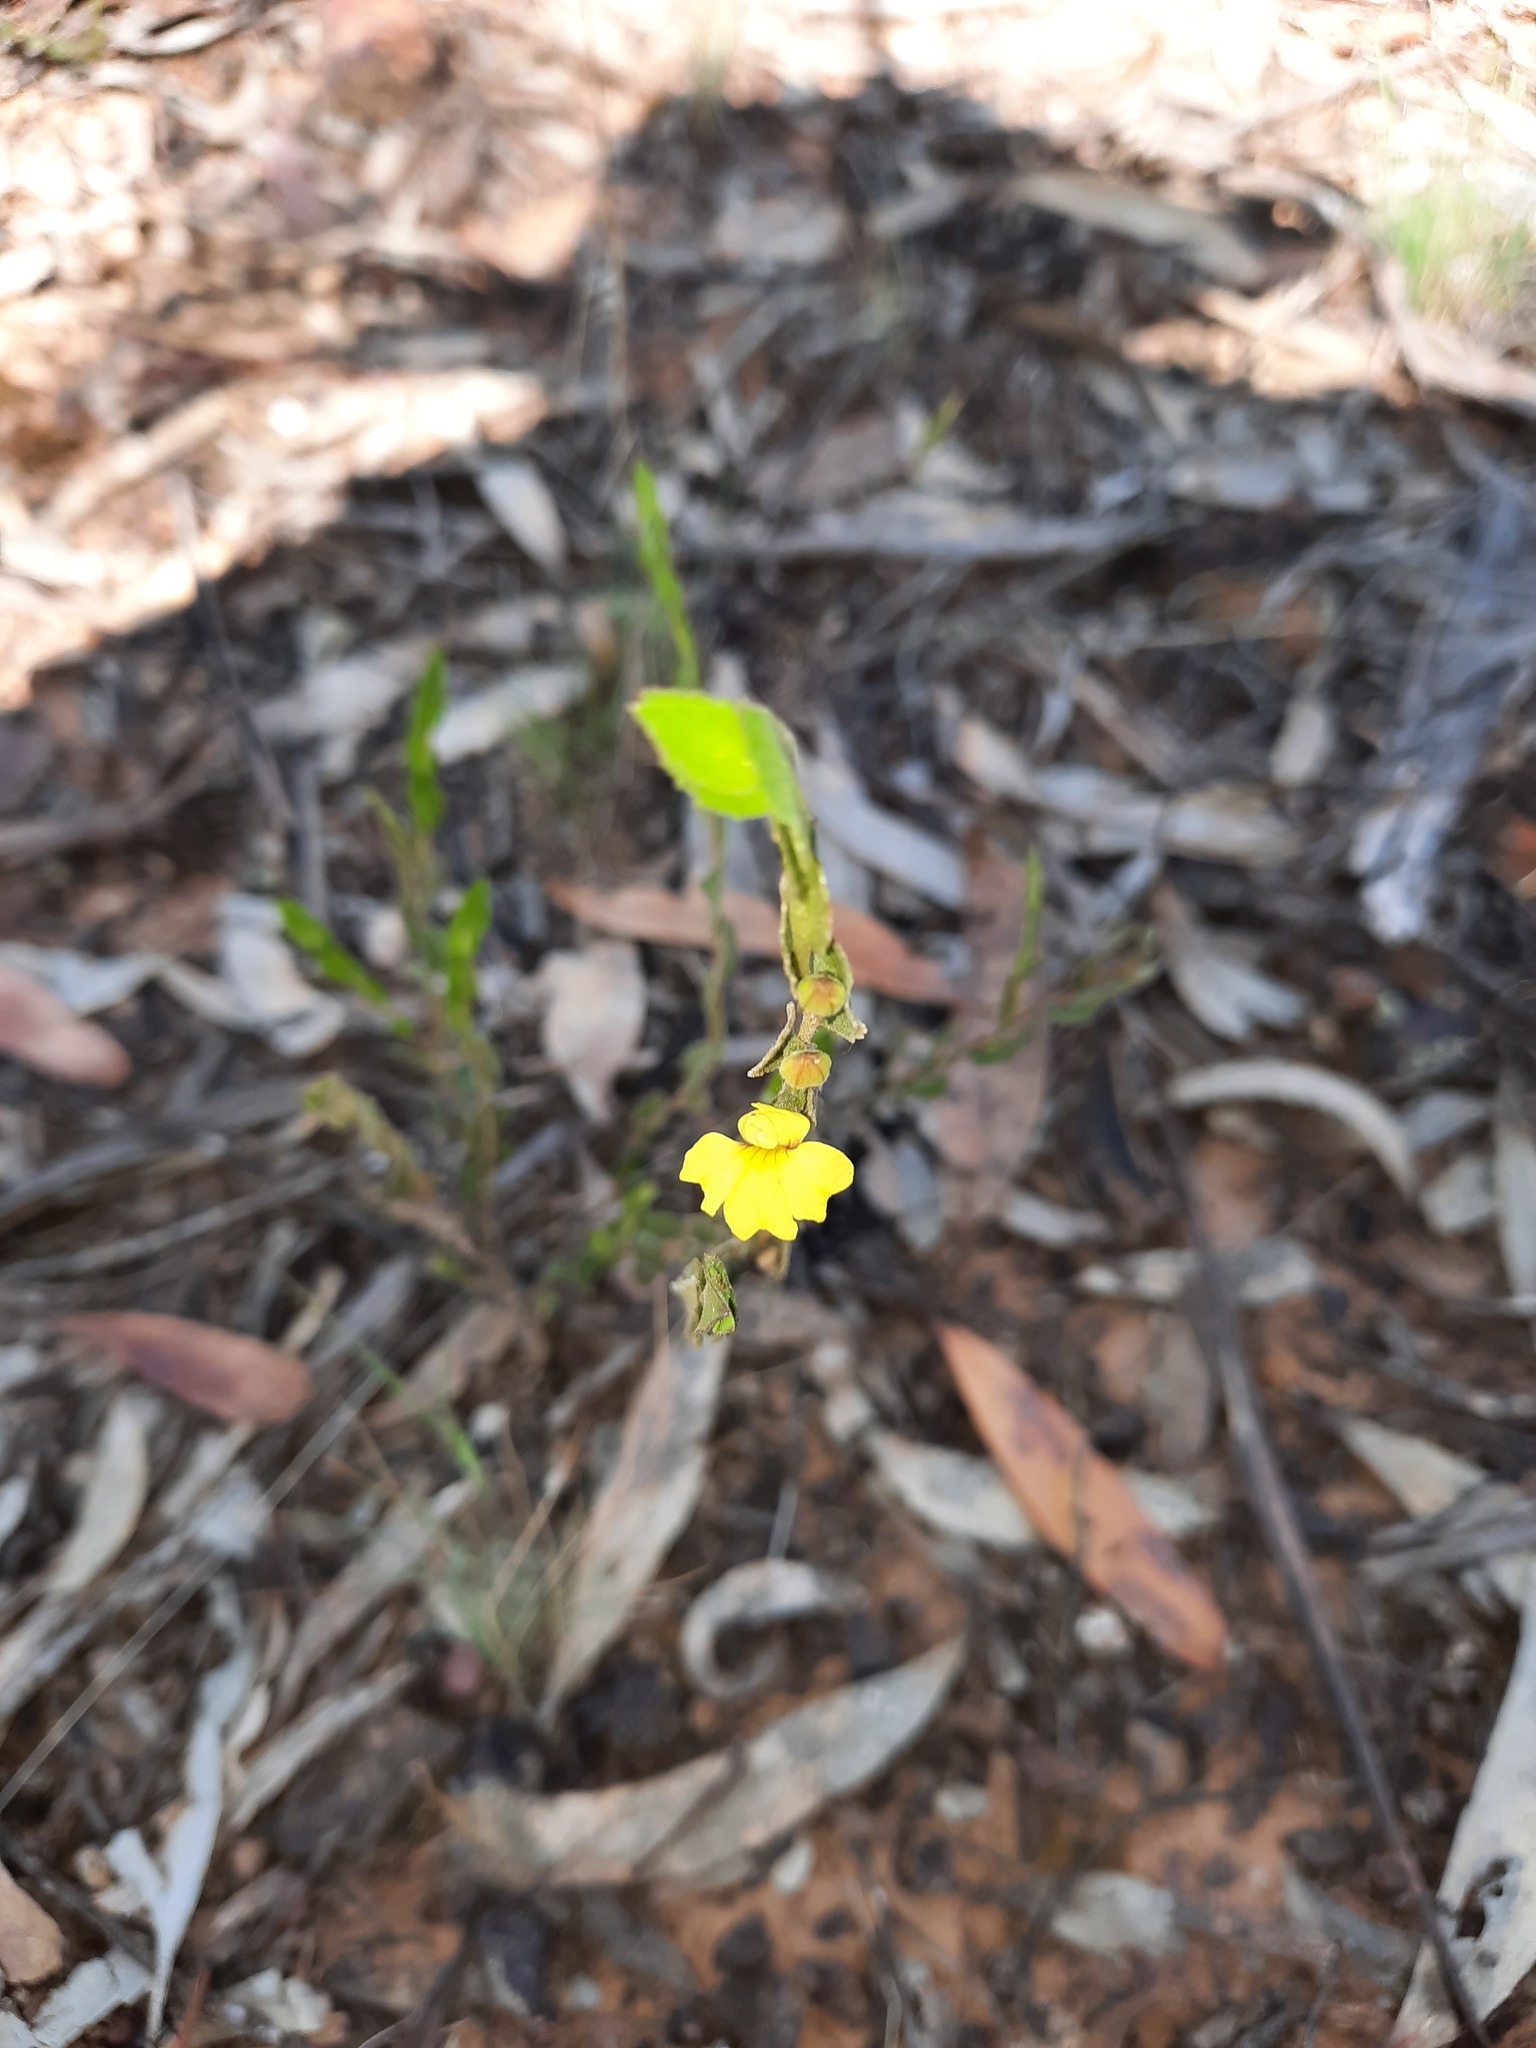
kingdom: Plantae
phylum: Tracheophyta
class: Magnoliopsida
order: Asterales
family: Goodeniaceae
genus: Goodenia
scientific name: Goodenia benthamiana
